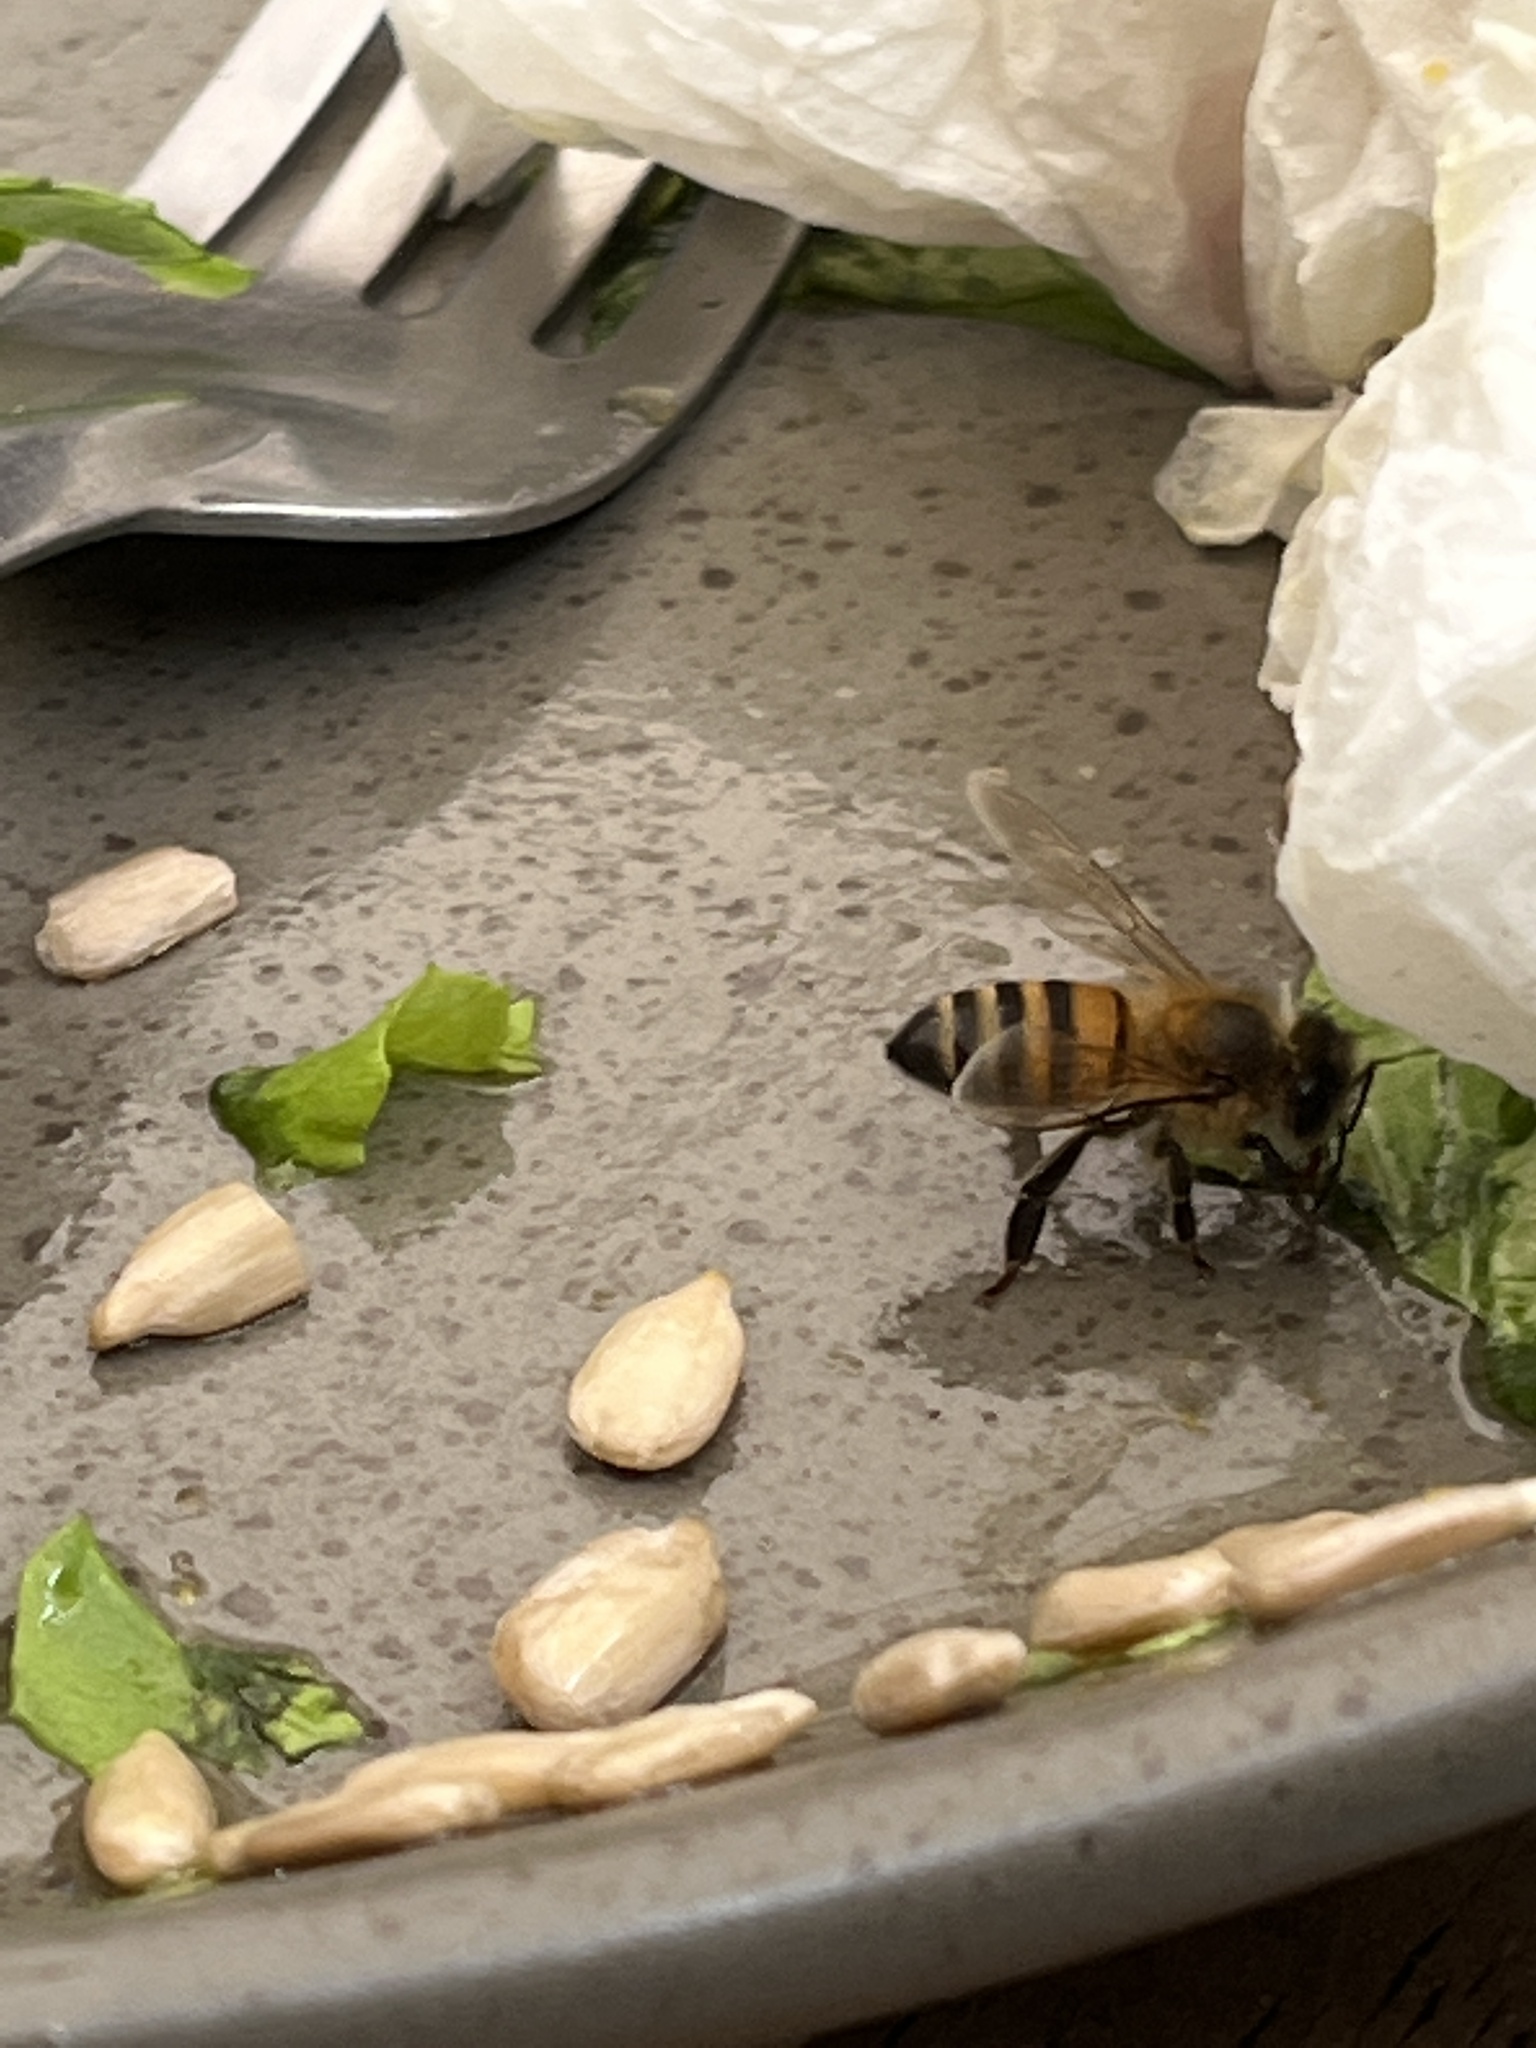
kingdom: Animalia
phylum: Arthropoda
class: Insecta
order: Hymenoptera
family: Apidae
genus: Apis
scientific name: Apis mellifera
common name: Honey bee
